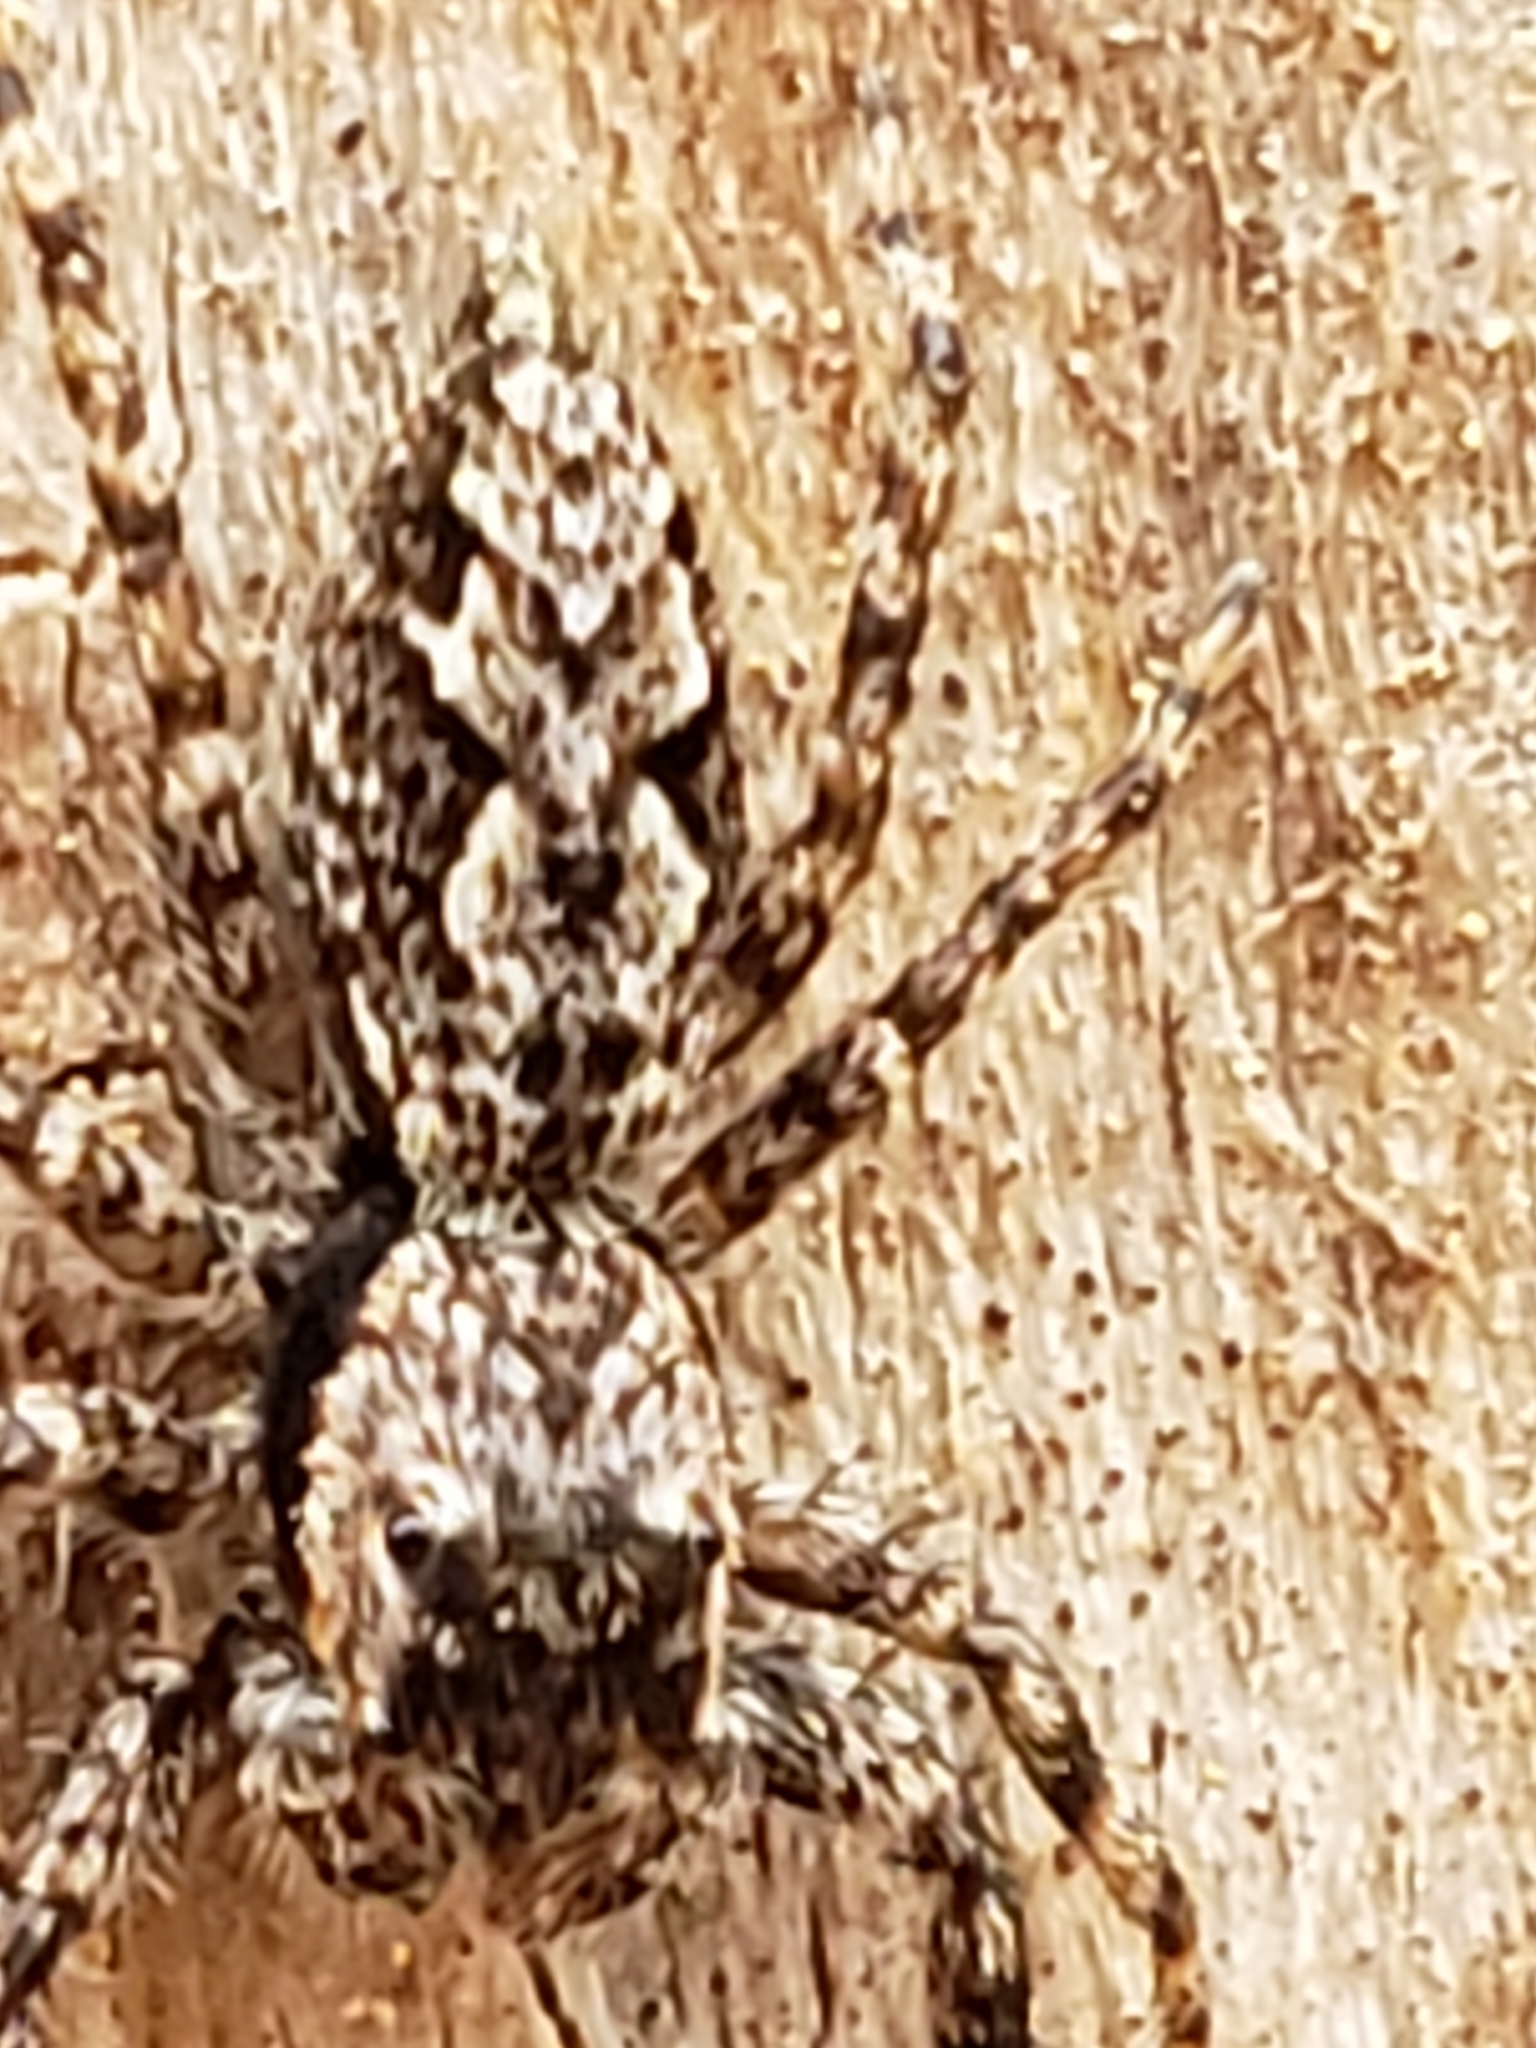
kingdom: Animalia
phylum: Arthropoda
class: Arachnida
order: Araneae
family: Salticidae
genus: Platycryptus
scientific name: Platycryptus undatus
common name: Tan jumping spider
